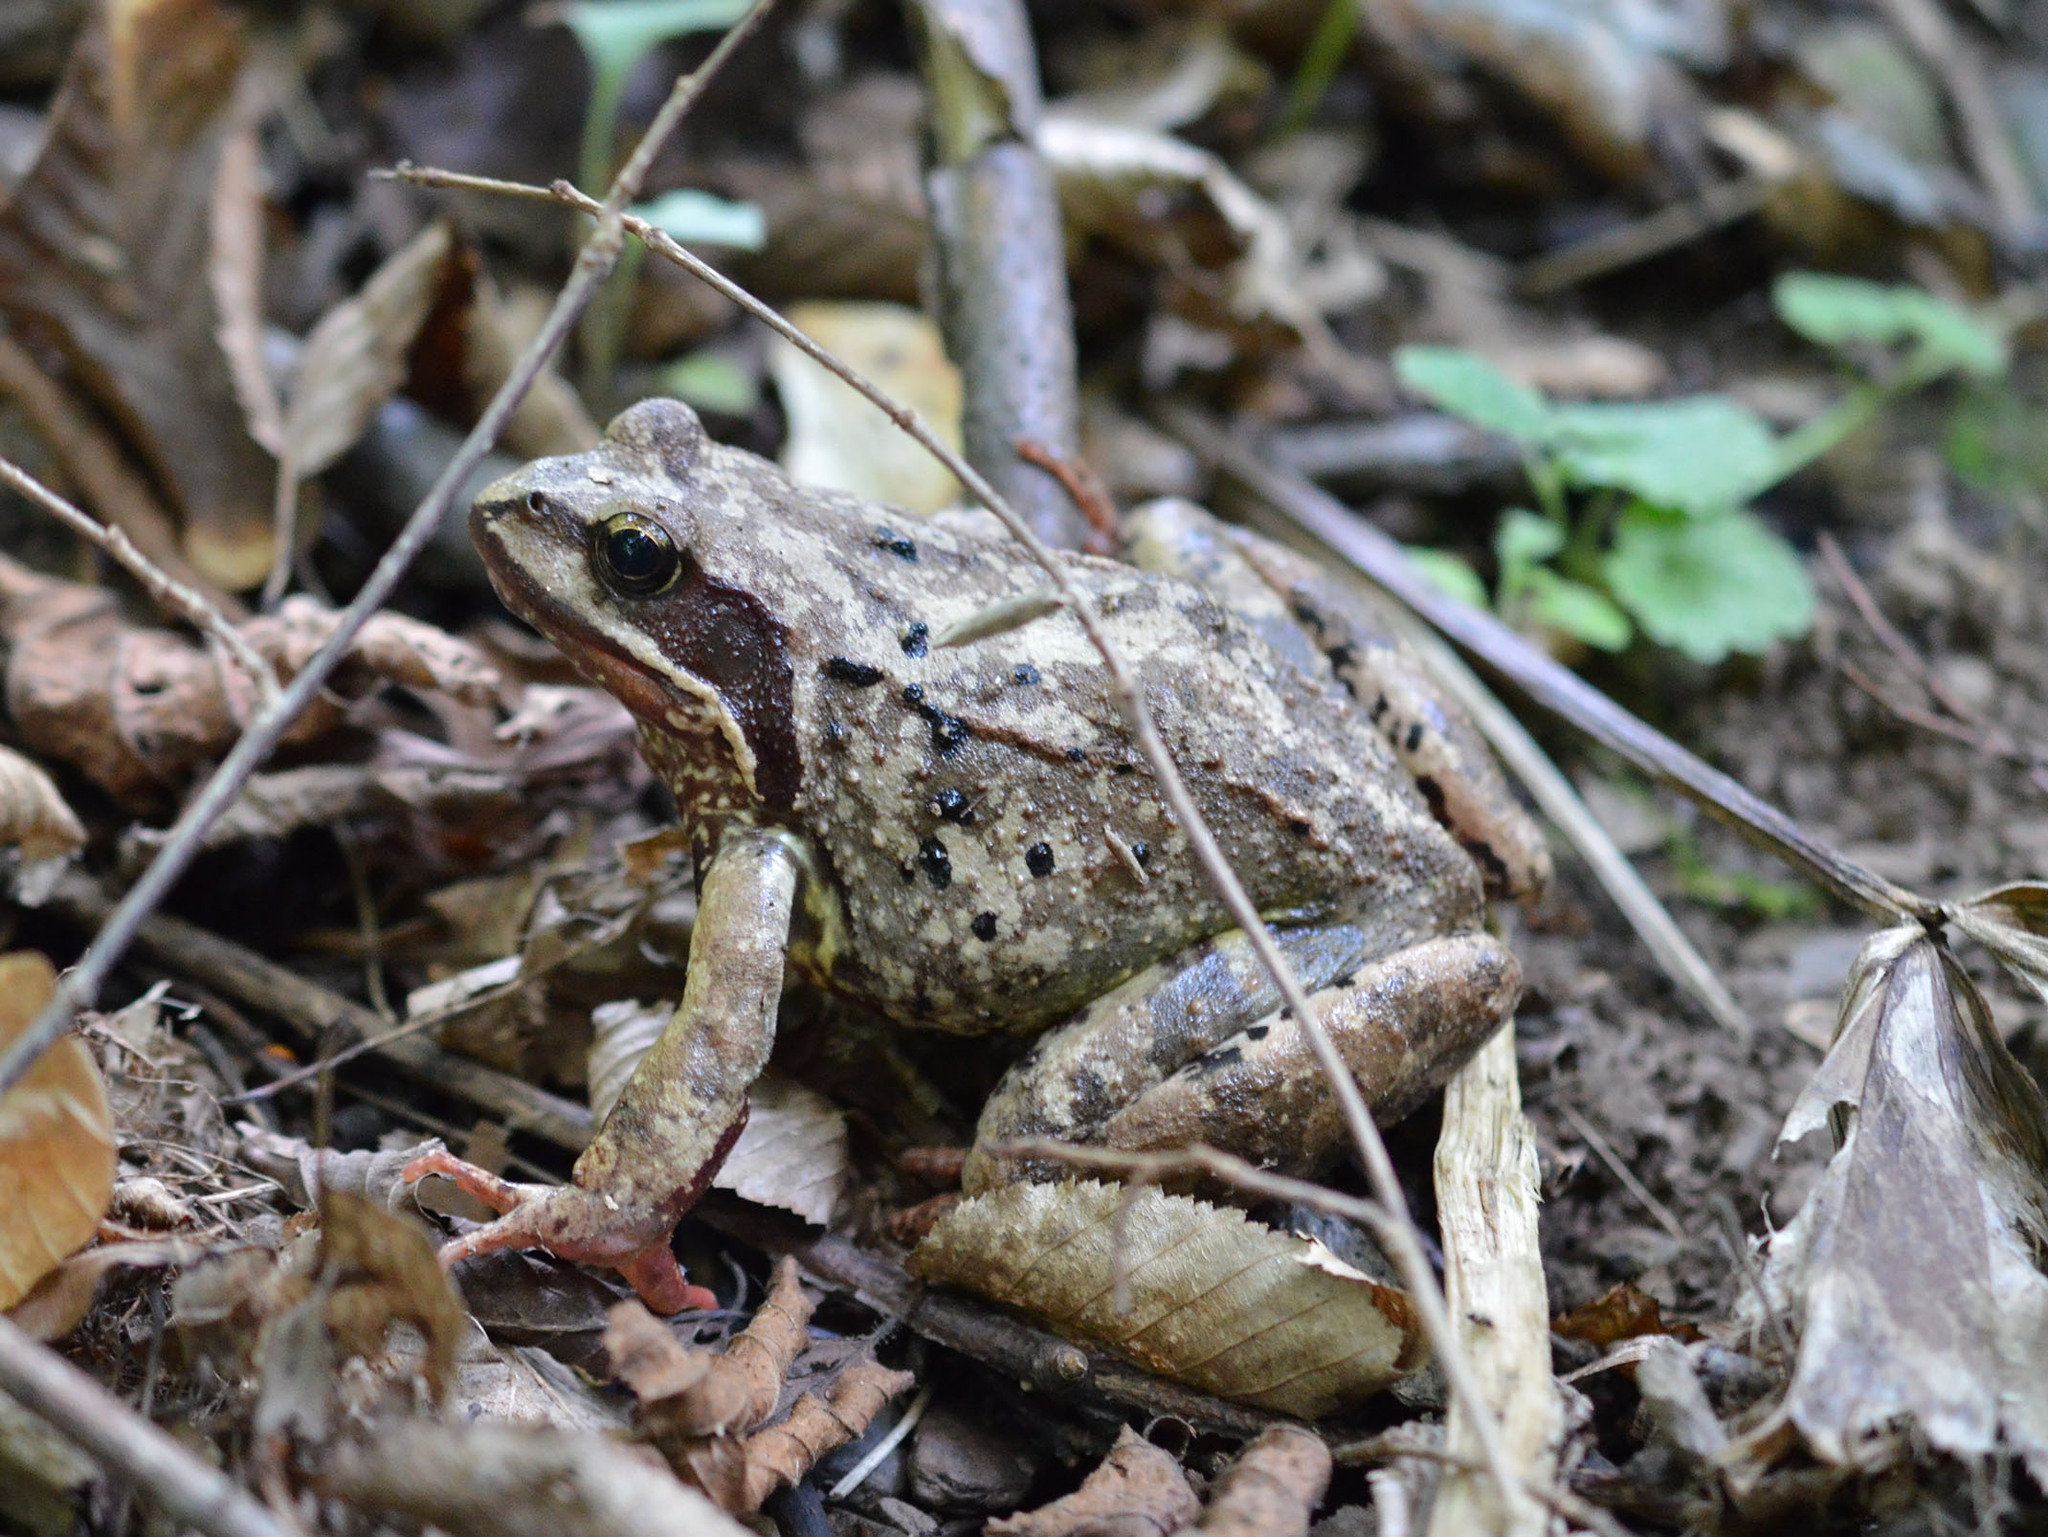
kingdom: Animalia
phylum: Chordata
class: Amphibia
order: Anura
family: Ranidae
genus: Rana
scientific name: Rana temporaria
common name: Common frog
